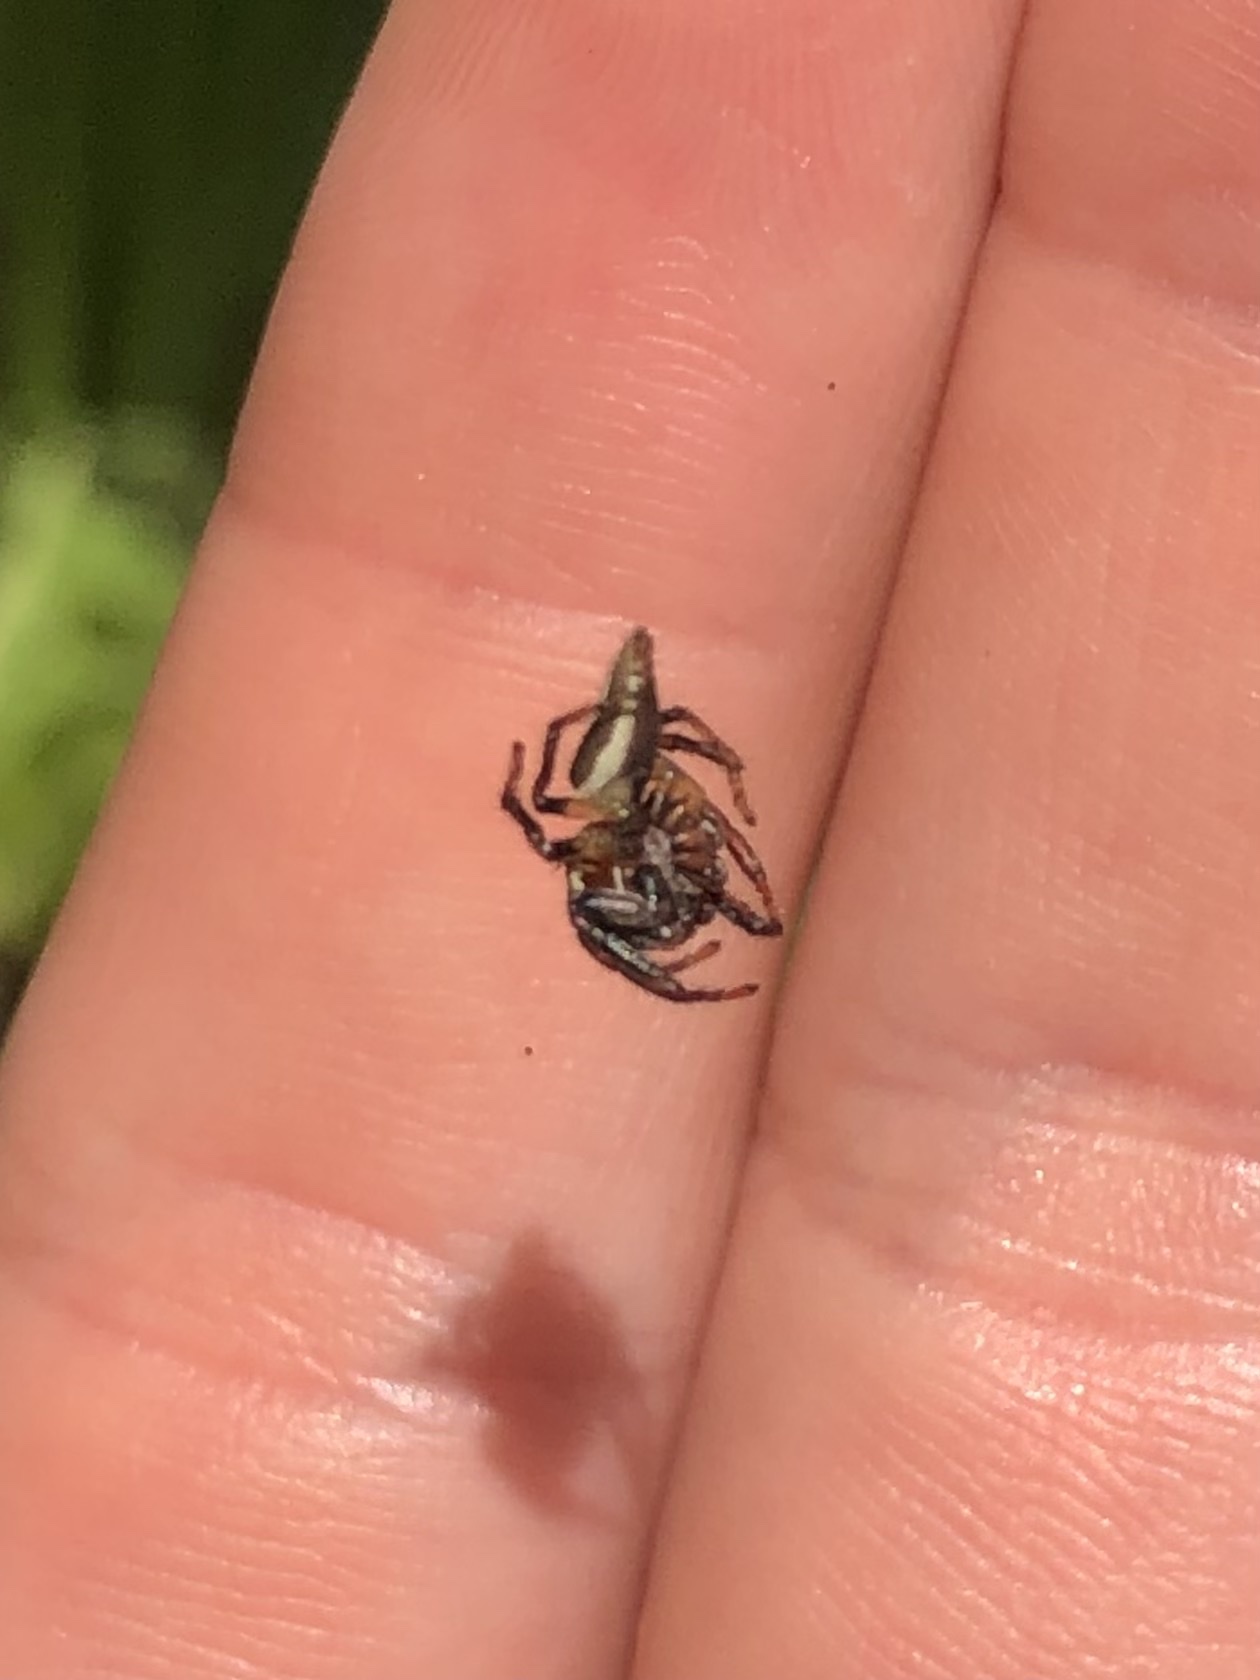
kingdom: Animalia
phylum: Arthropoda
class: Arachnida
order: Araneae
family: Salticidae
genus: Colonus
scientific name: Colonus puerperus
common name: Jumping spiders
